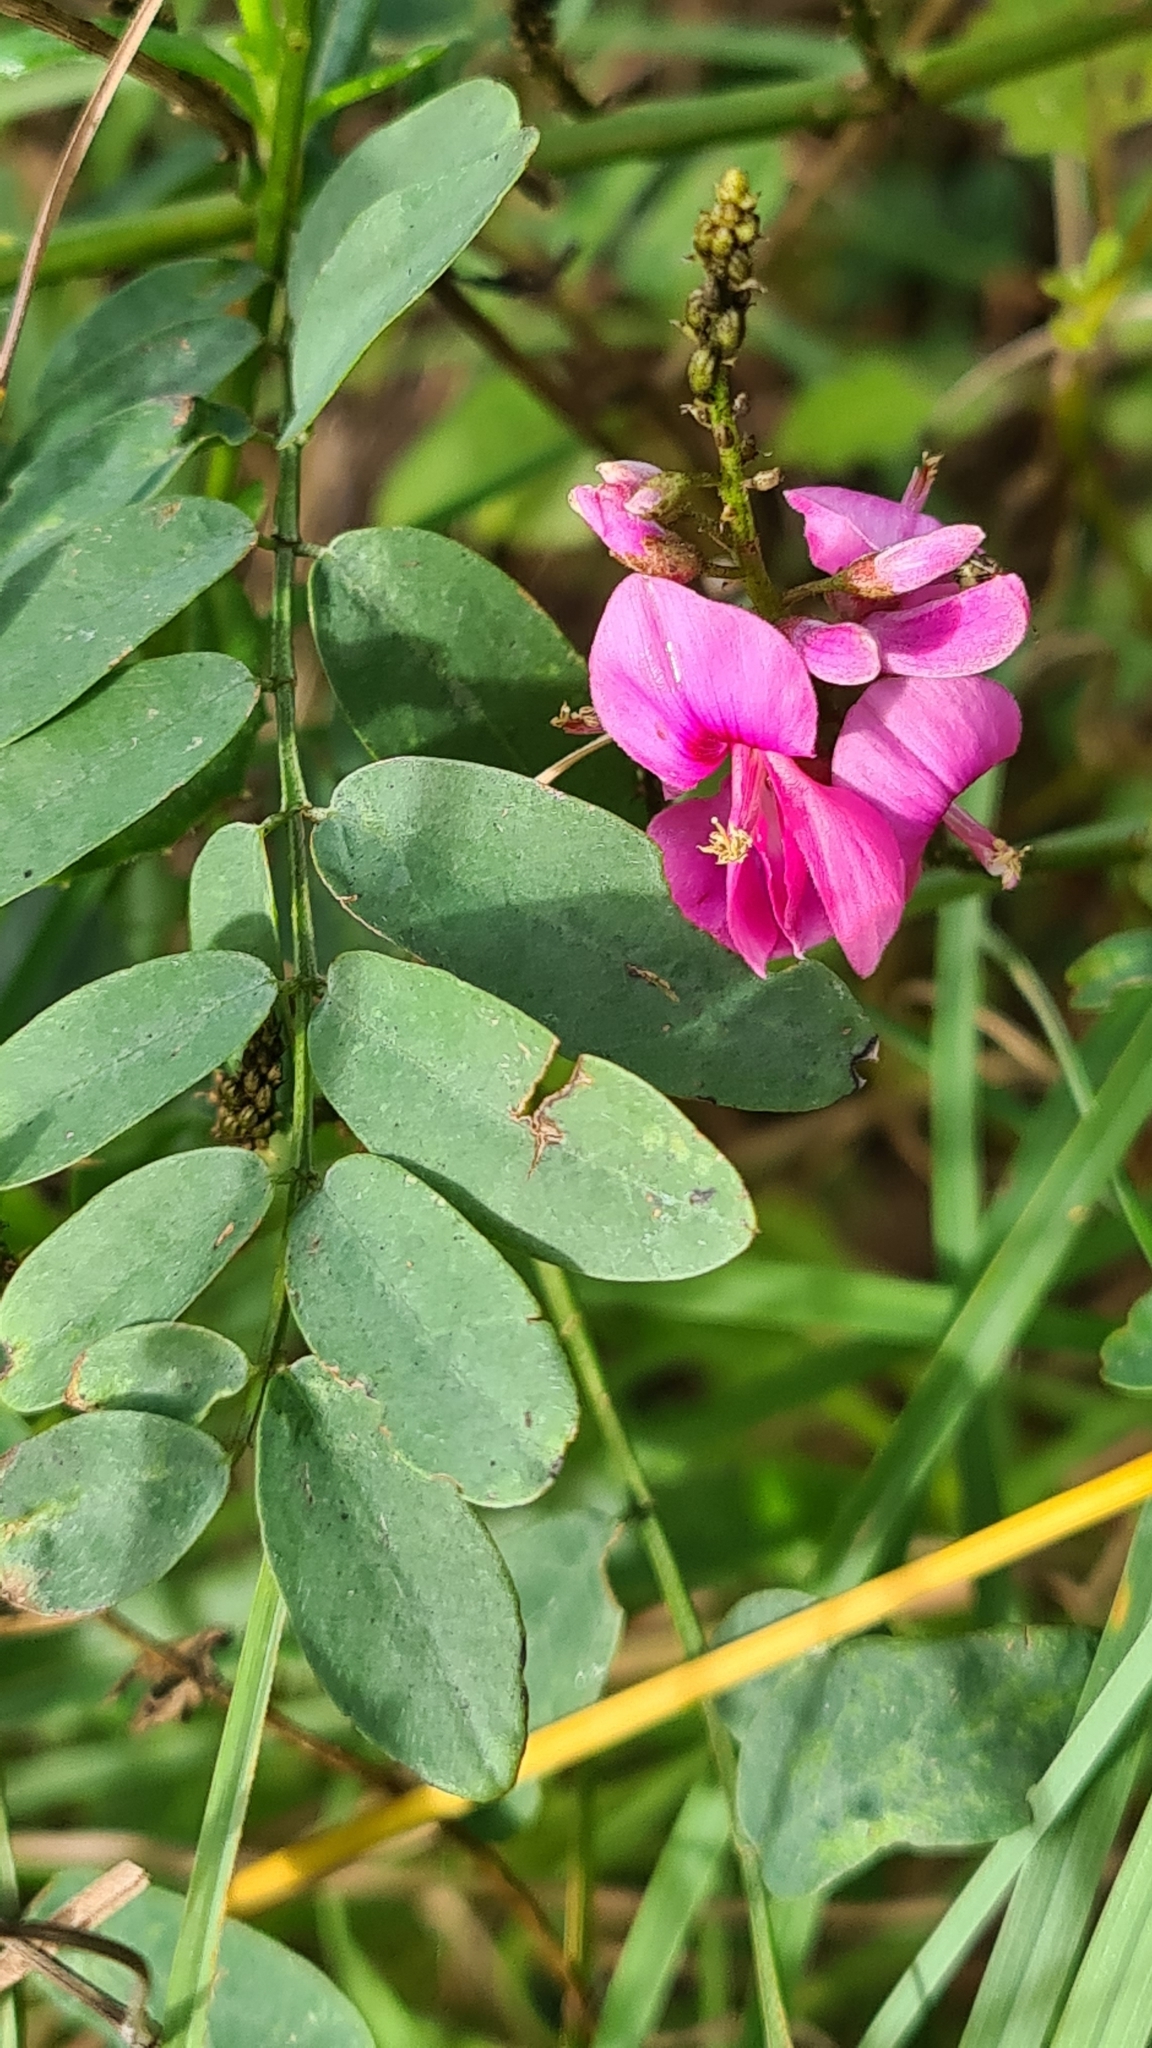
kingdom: Plantae
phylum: Tracheophyta
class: Magnoliopsida
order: Fabales
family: Fabaceae
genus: Indigofera
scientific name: Indigofera australis
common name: Australian indigo
